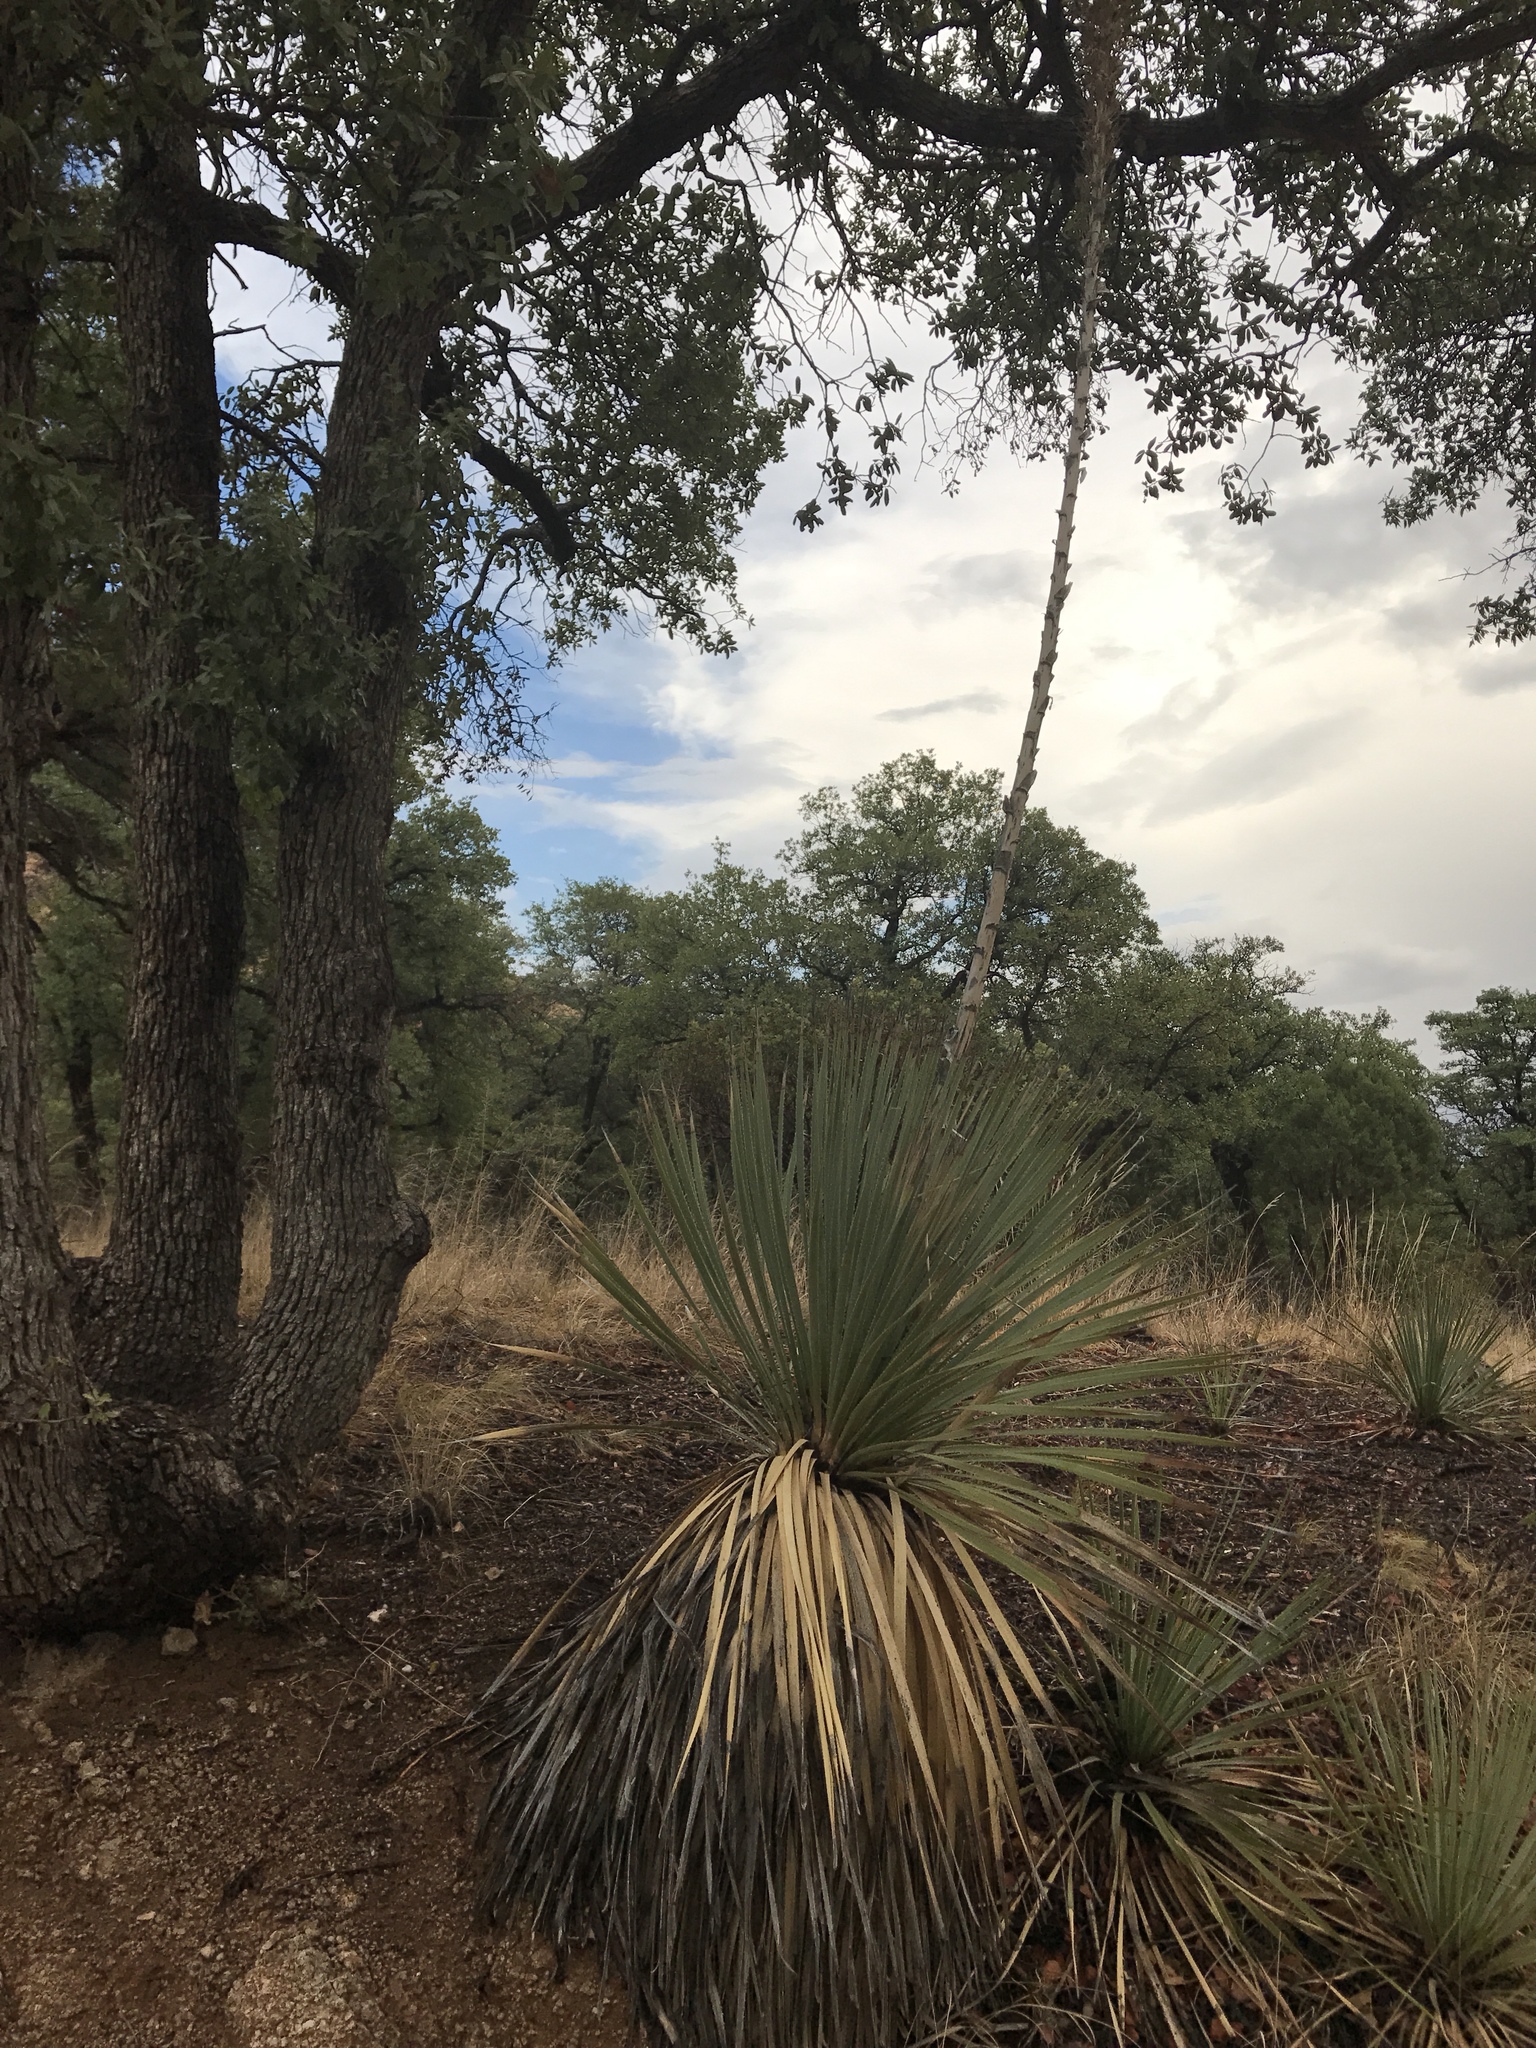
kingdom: Plantae
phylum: Tracheophyta
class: Liliopsida
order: Asparagales
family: Asparagaceae
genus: Dasylirion
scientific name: Dasylirion wheeleri
